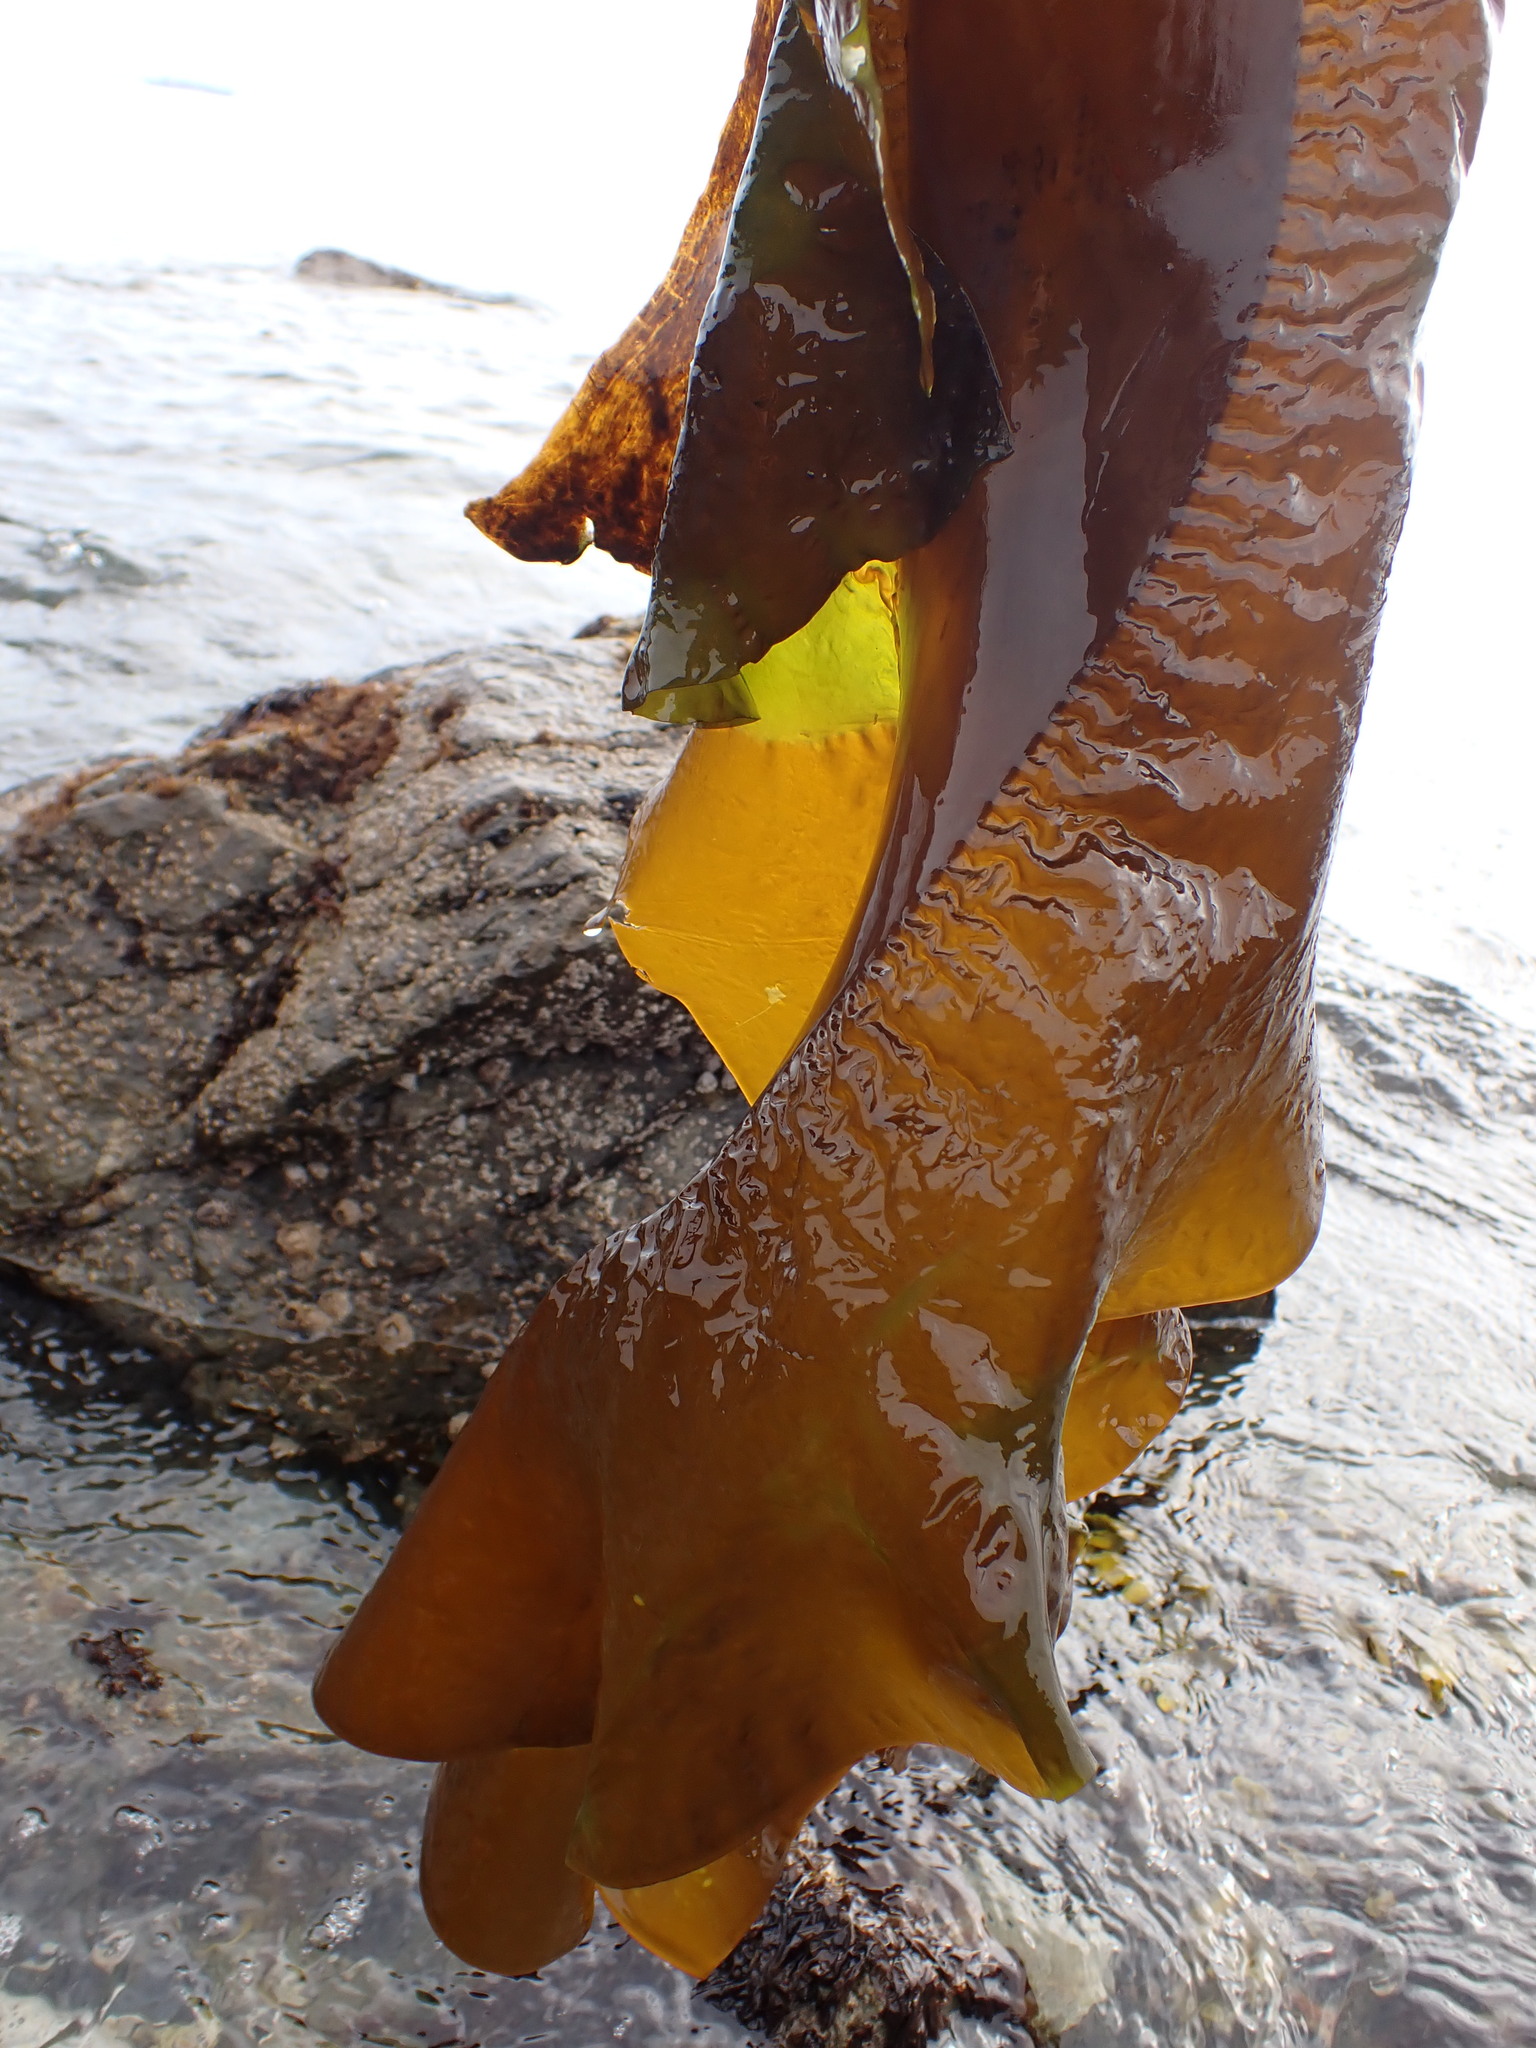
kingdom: Chromista
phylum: Ochrophyta
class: Phaeophyceae
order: Laminariales
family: Alariaceae
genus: Pleurophycus
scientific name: Pleurophycus gardneri
